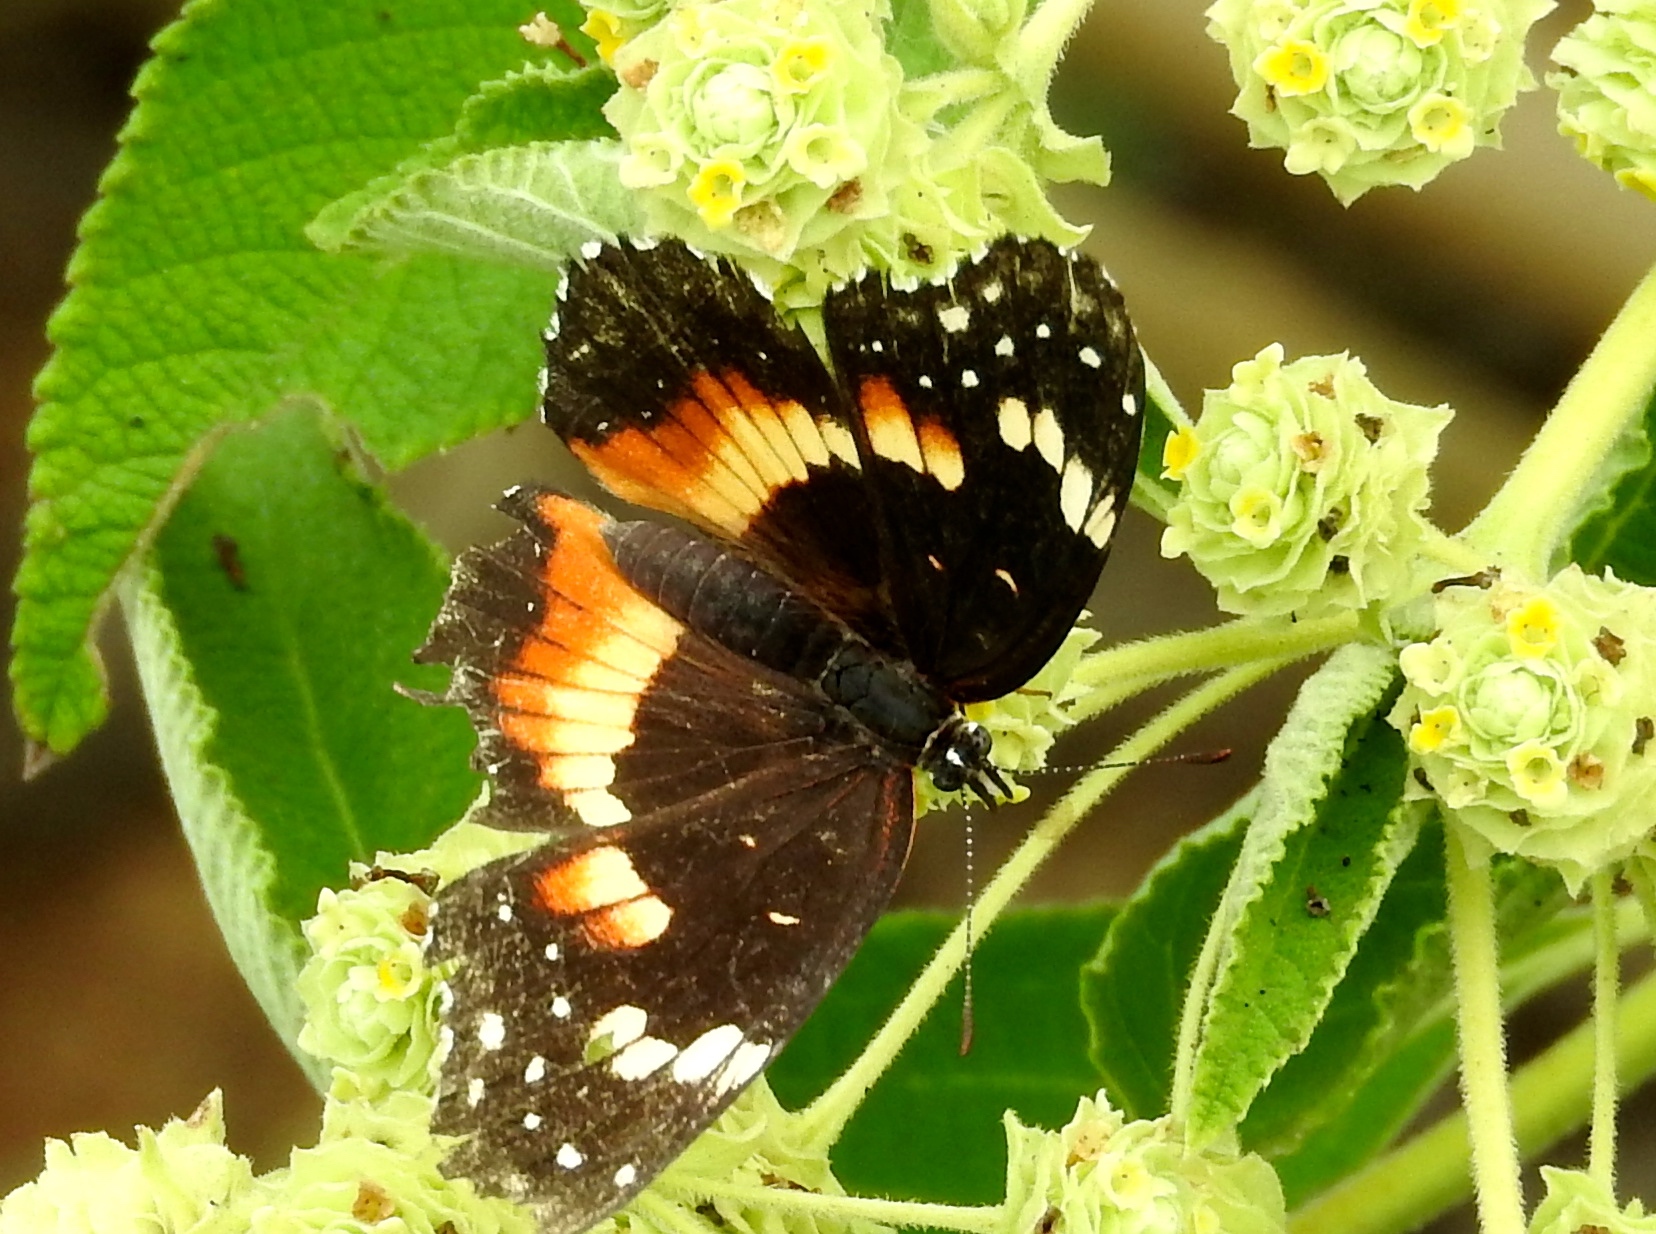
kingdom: Animalia
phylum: Arthropoda
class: Insecta
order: Lepidoptera
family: Nymphalidae
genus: Chlosyne
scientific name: Chlosyne lacinia
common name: Bordered patch
